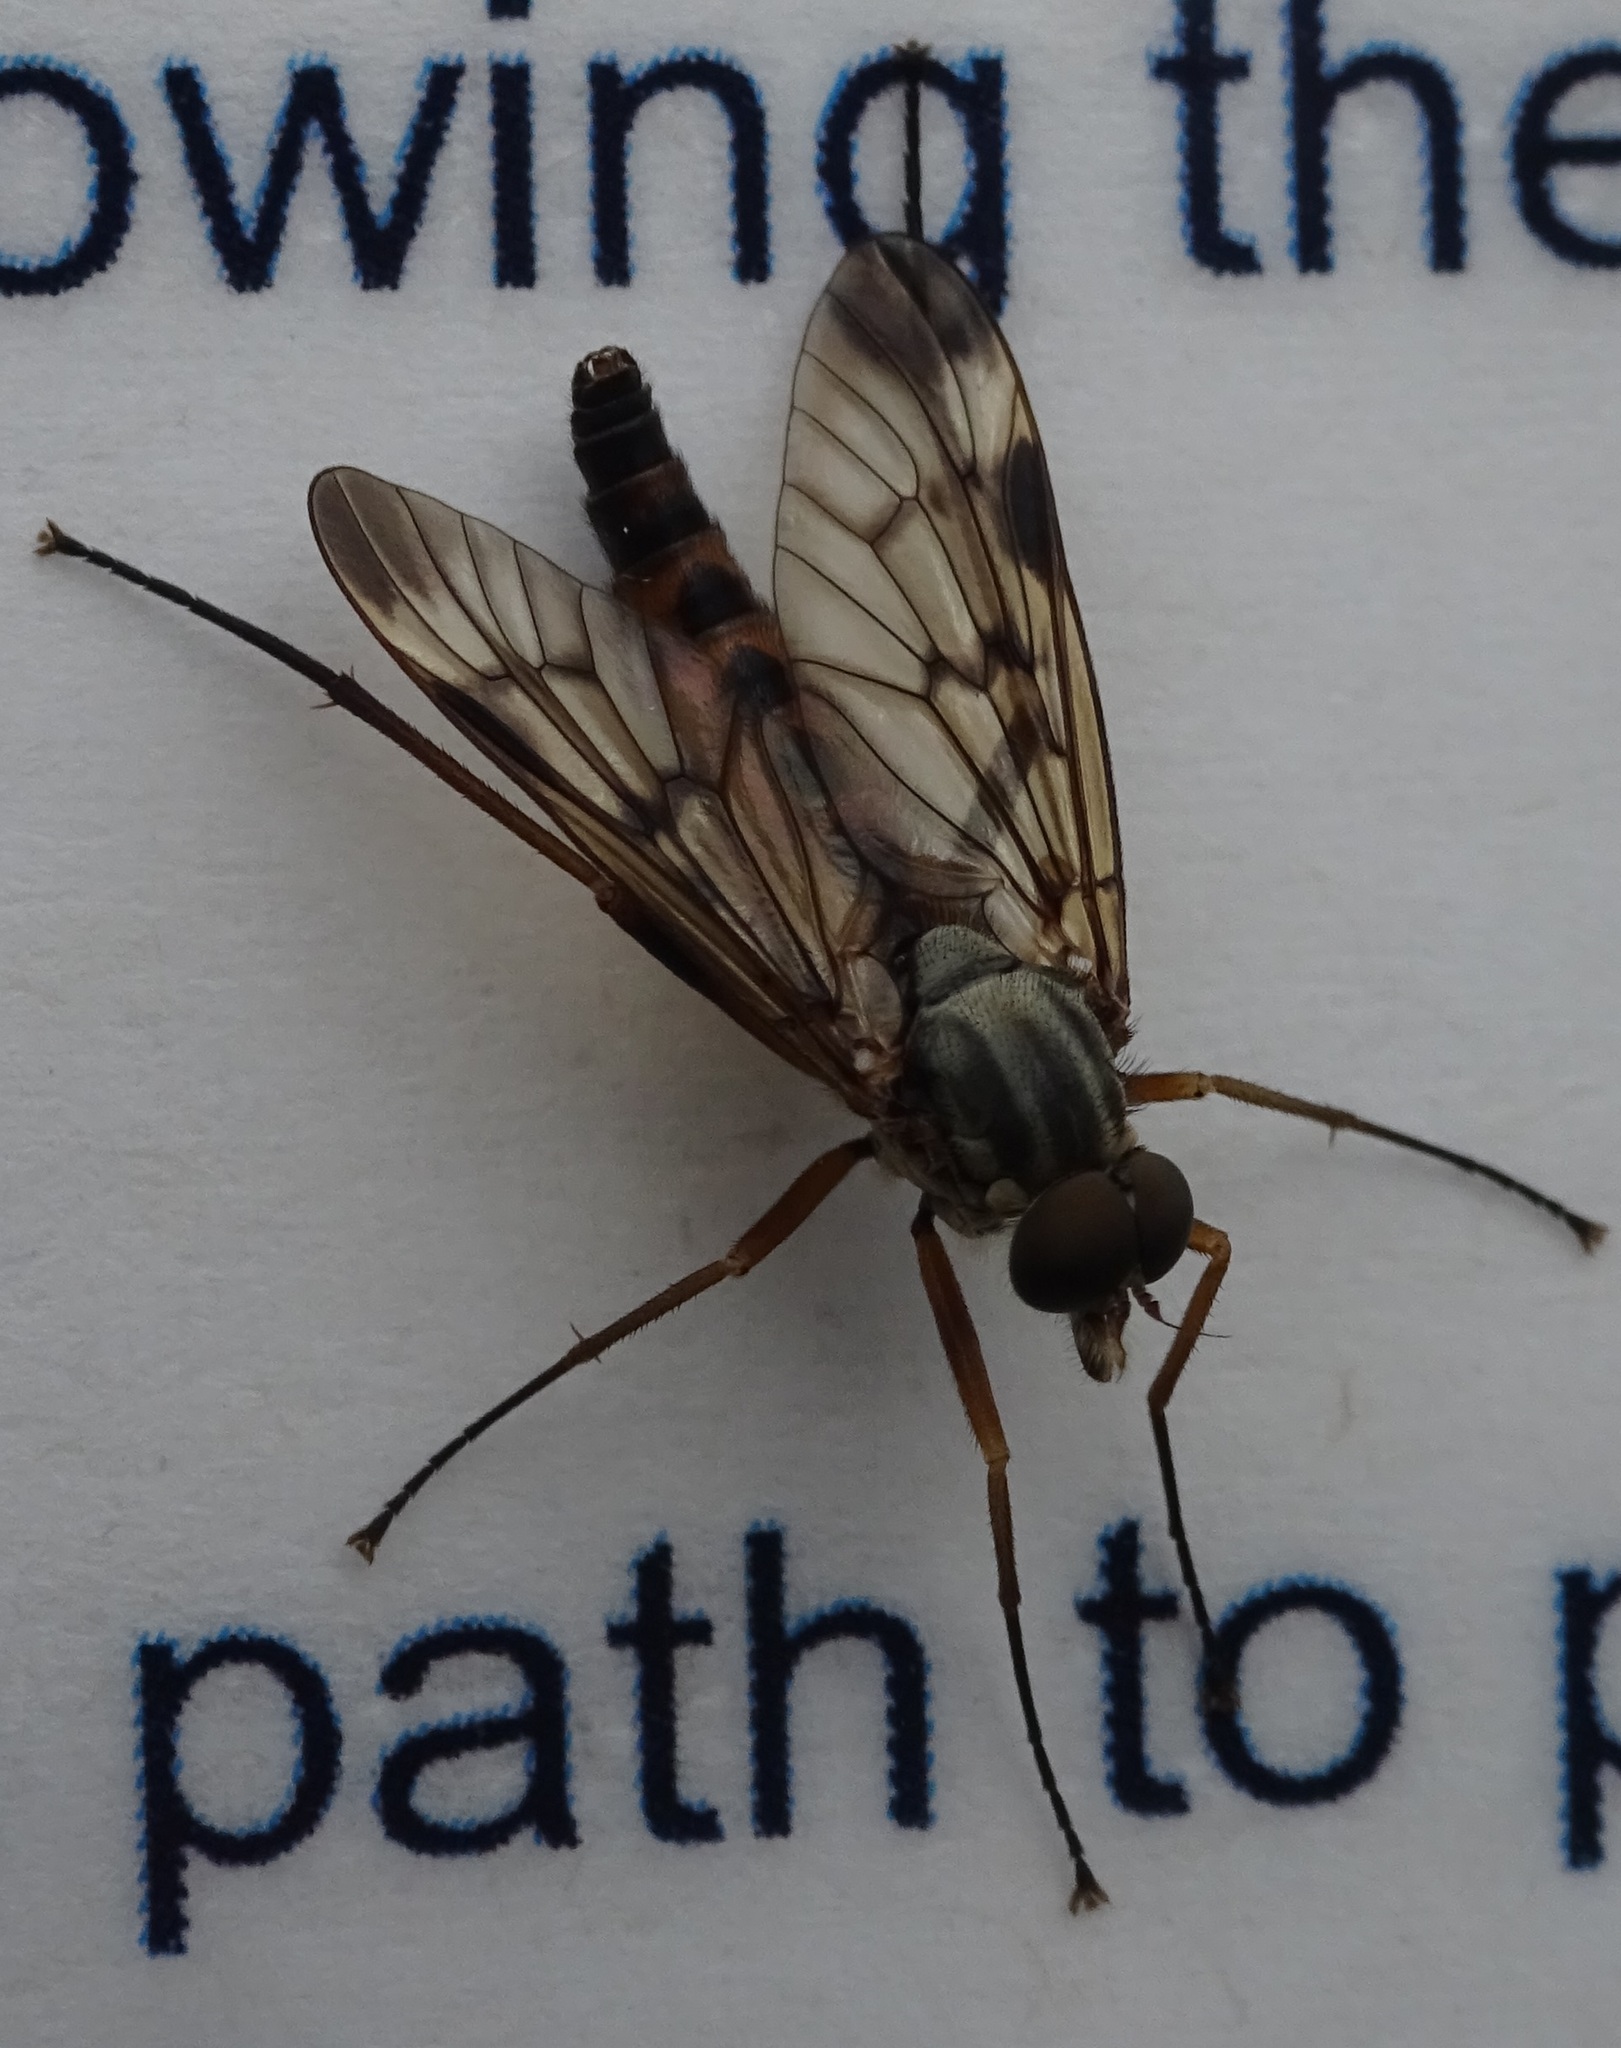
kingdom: Animalia
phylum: Arthropoda
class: Insecta
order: Diptera
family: Rhagionidae
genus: Rhagio
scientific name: Rhagio scolopacea
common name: Downlooker snipefly
